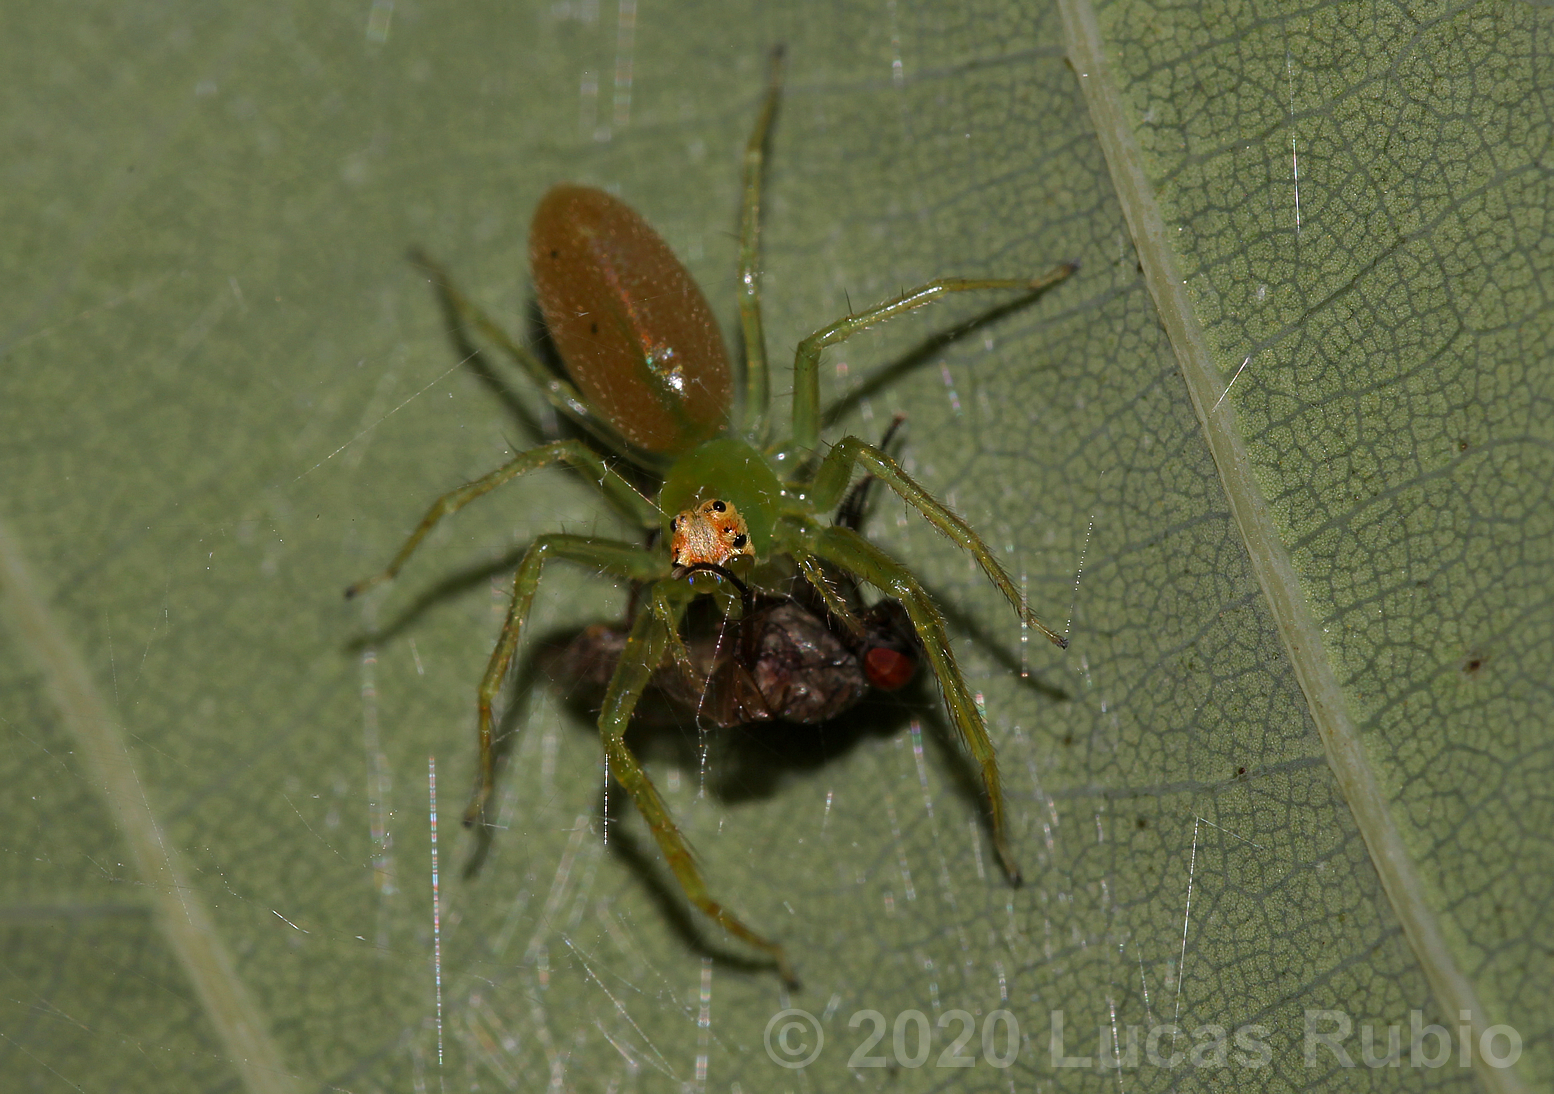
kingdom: Animalia
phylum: Arthropoda
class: Arachnida
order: Araneae
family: Salticidae
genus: Lyssomanes
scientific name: Lyssomanes pauper
